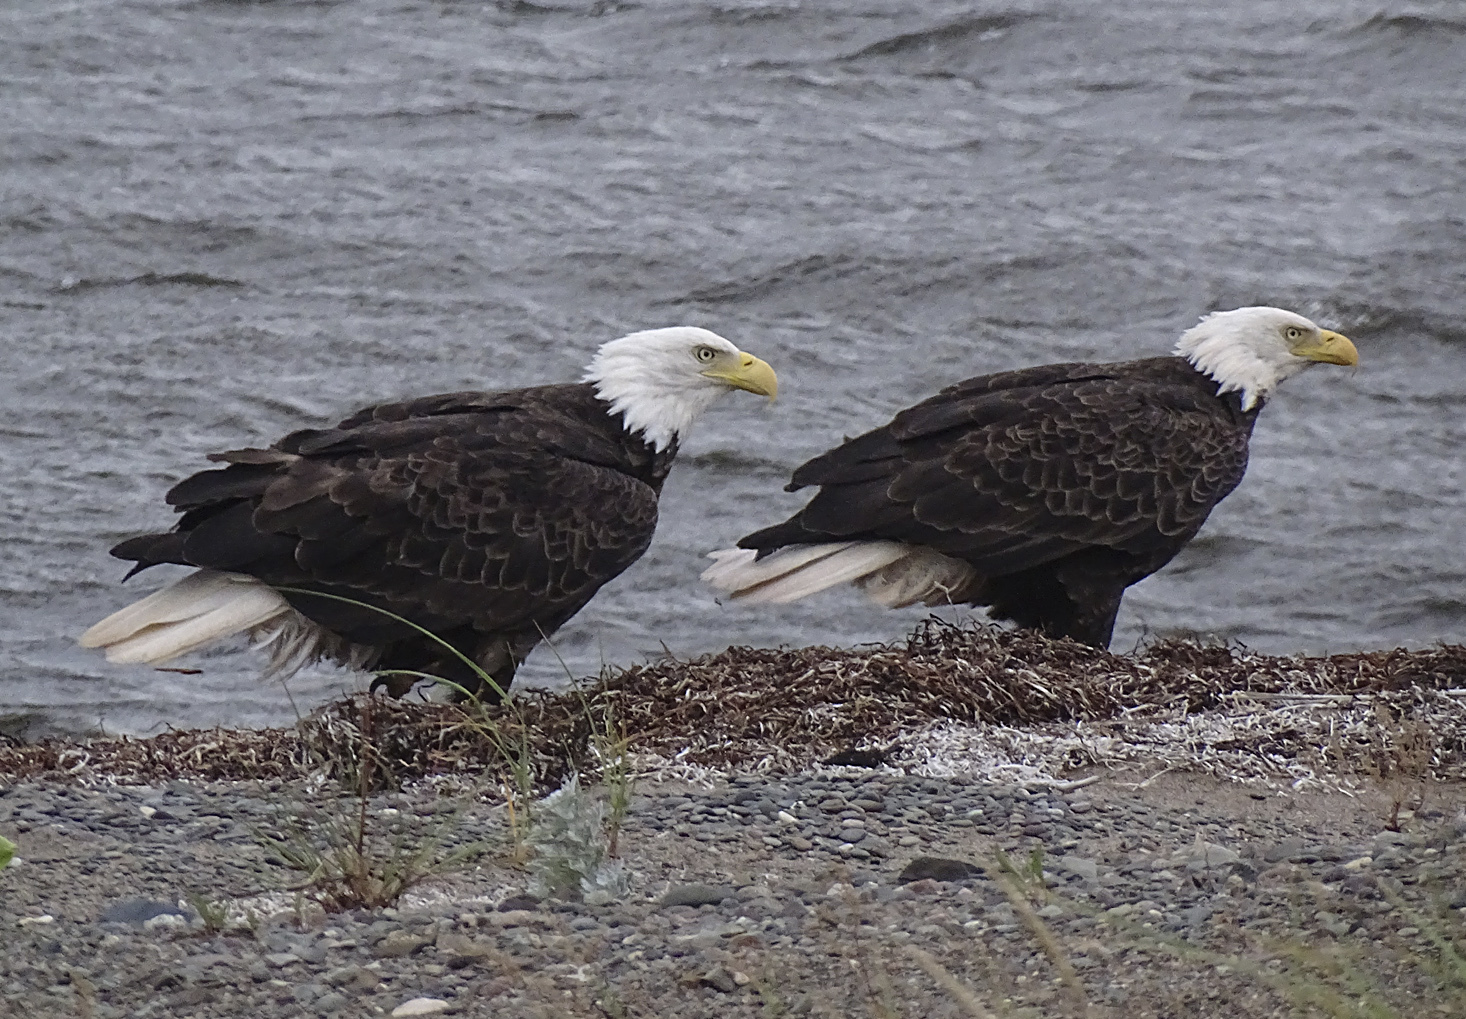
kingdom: Animalia
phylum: Chordata
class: Aves
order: Accipitriformes
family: Accipitridae
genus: Haliaeetus
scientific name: Haliaeetus leucocephalus
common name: Bald eagle
